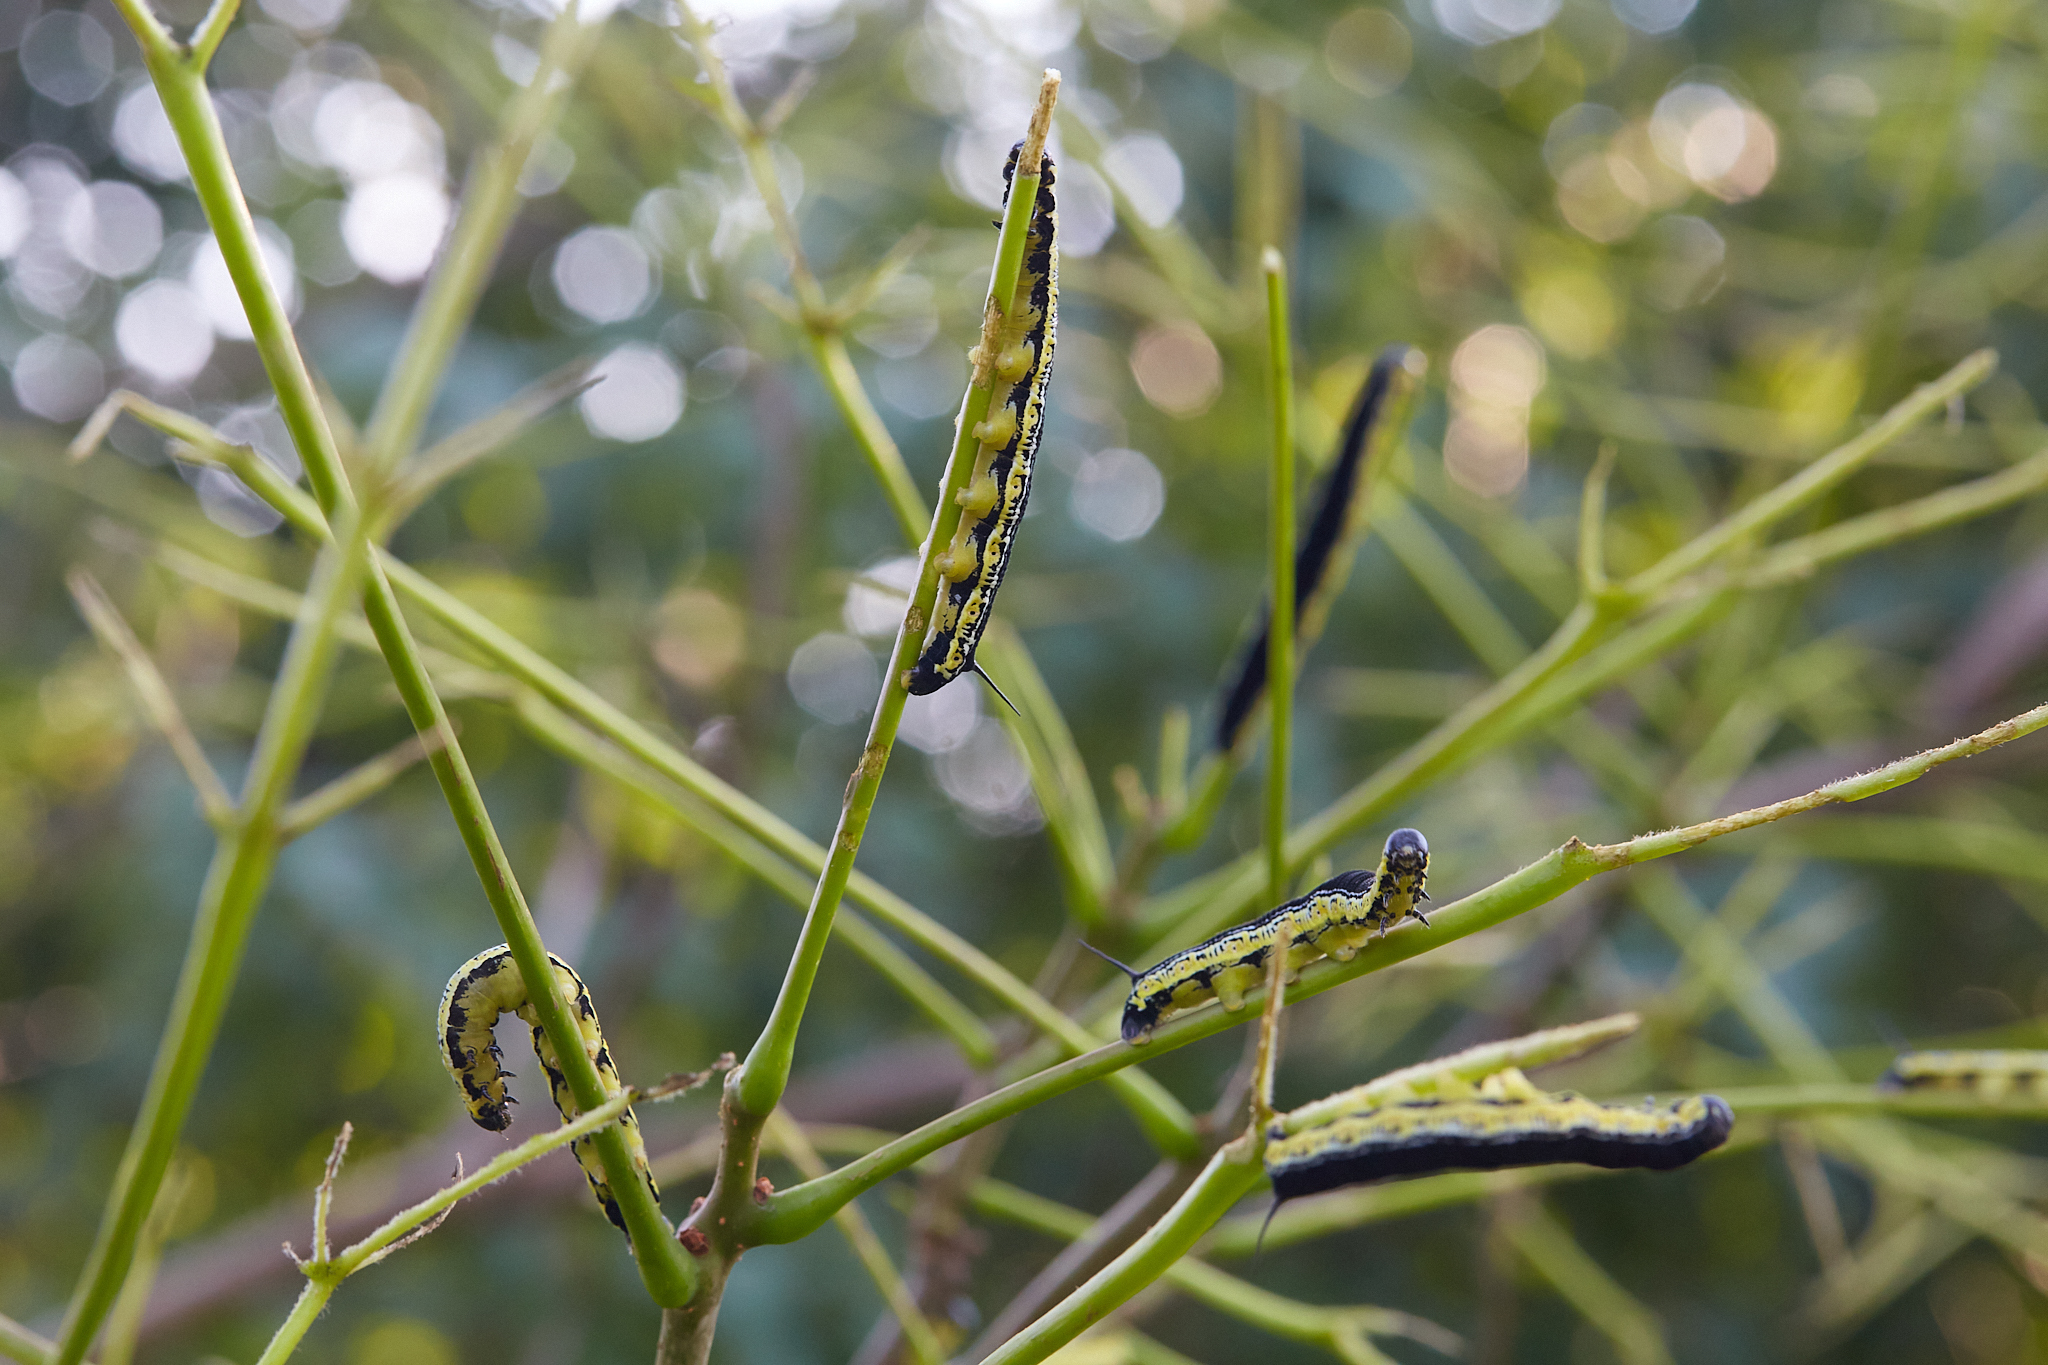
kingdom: Animalia
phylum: Arthropoda
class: Insecta
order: Lepidoptera
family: Sphingidae
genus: Ceratomia
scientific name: Ceratomia catalpae
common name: Catalpa hornworm
